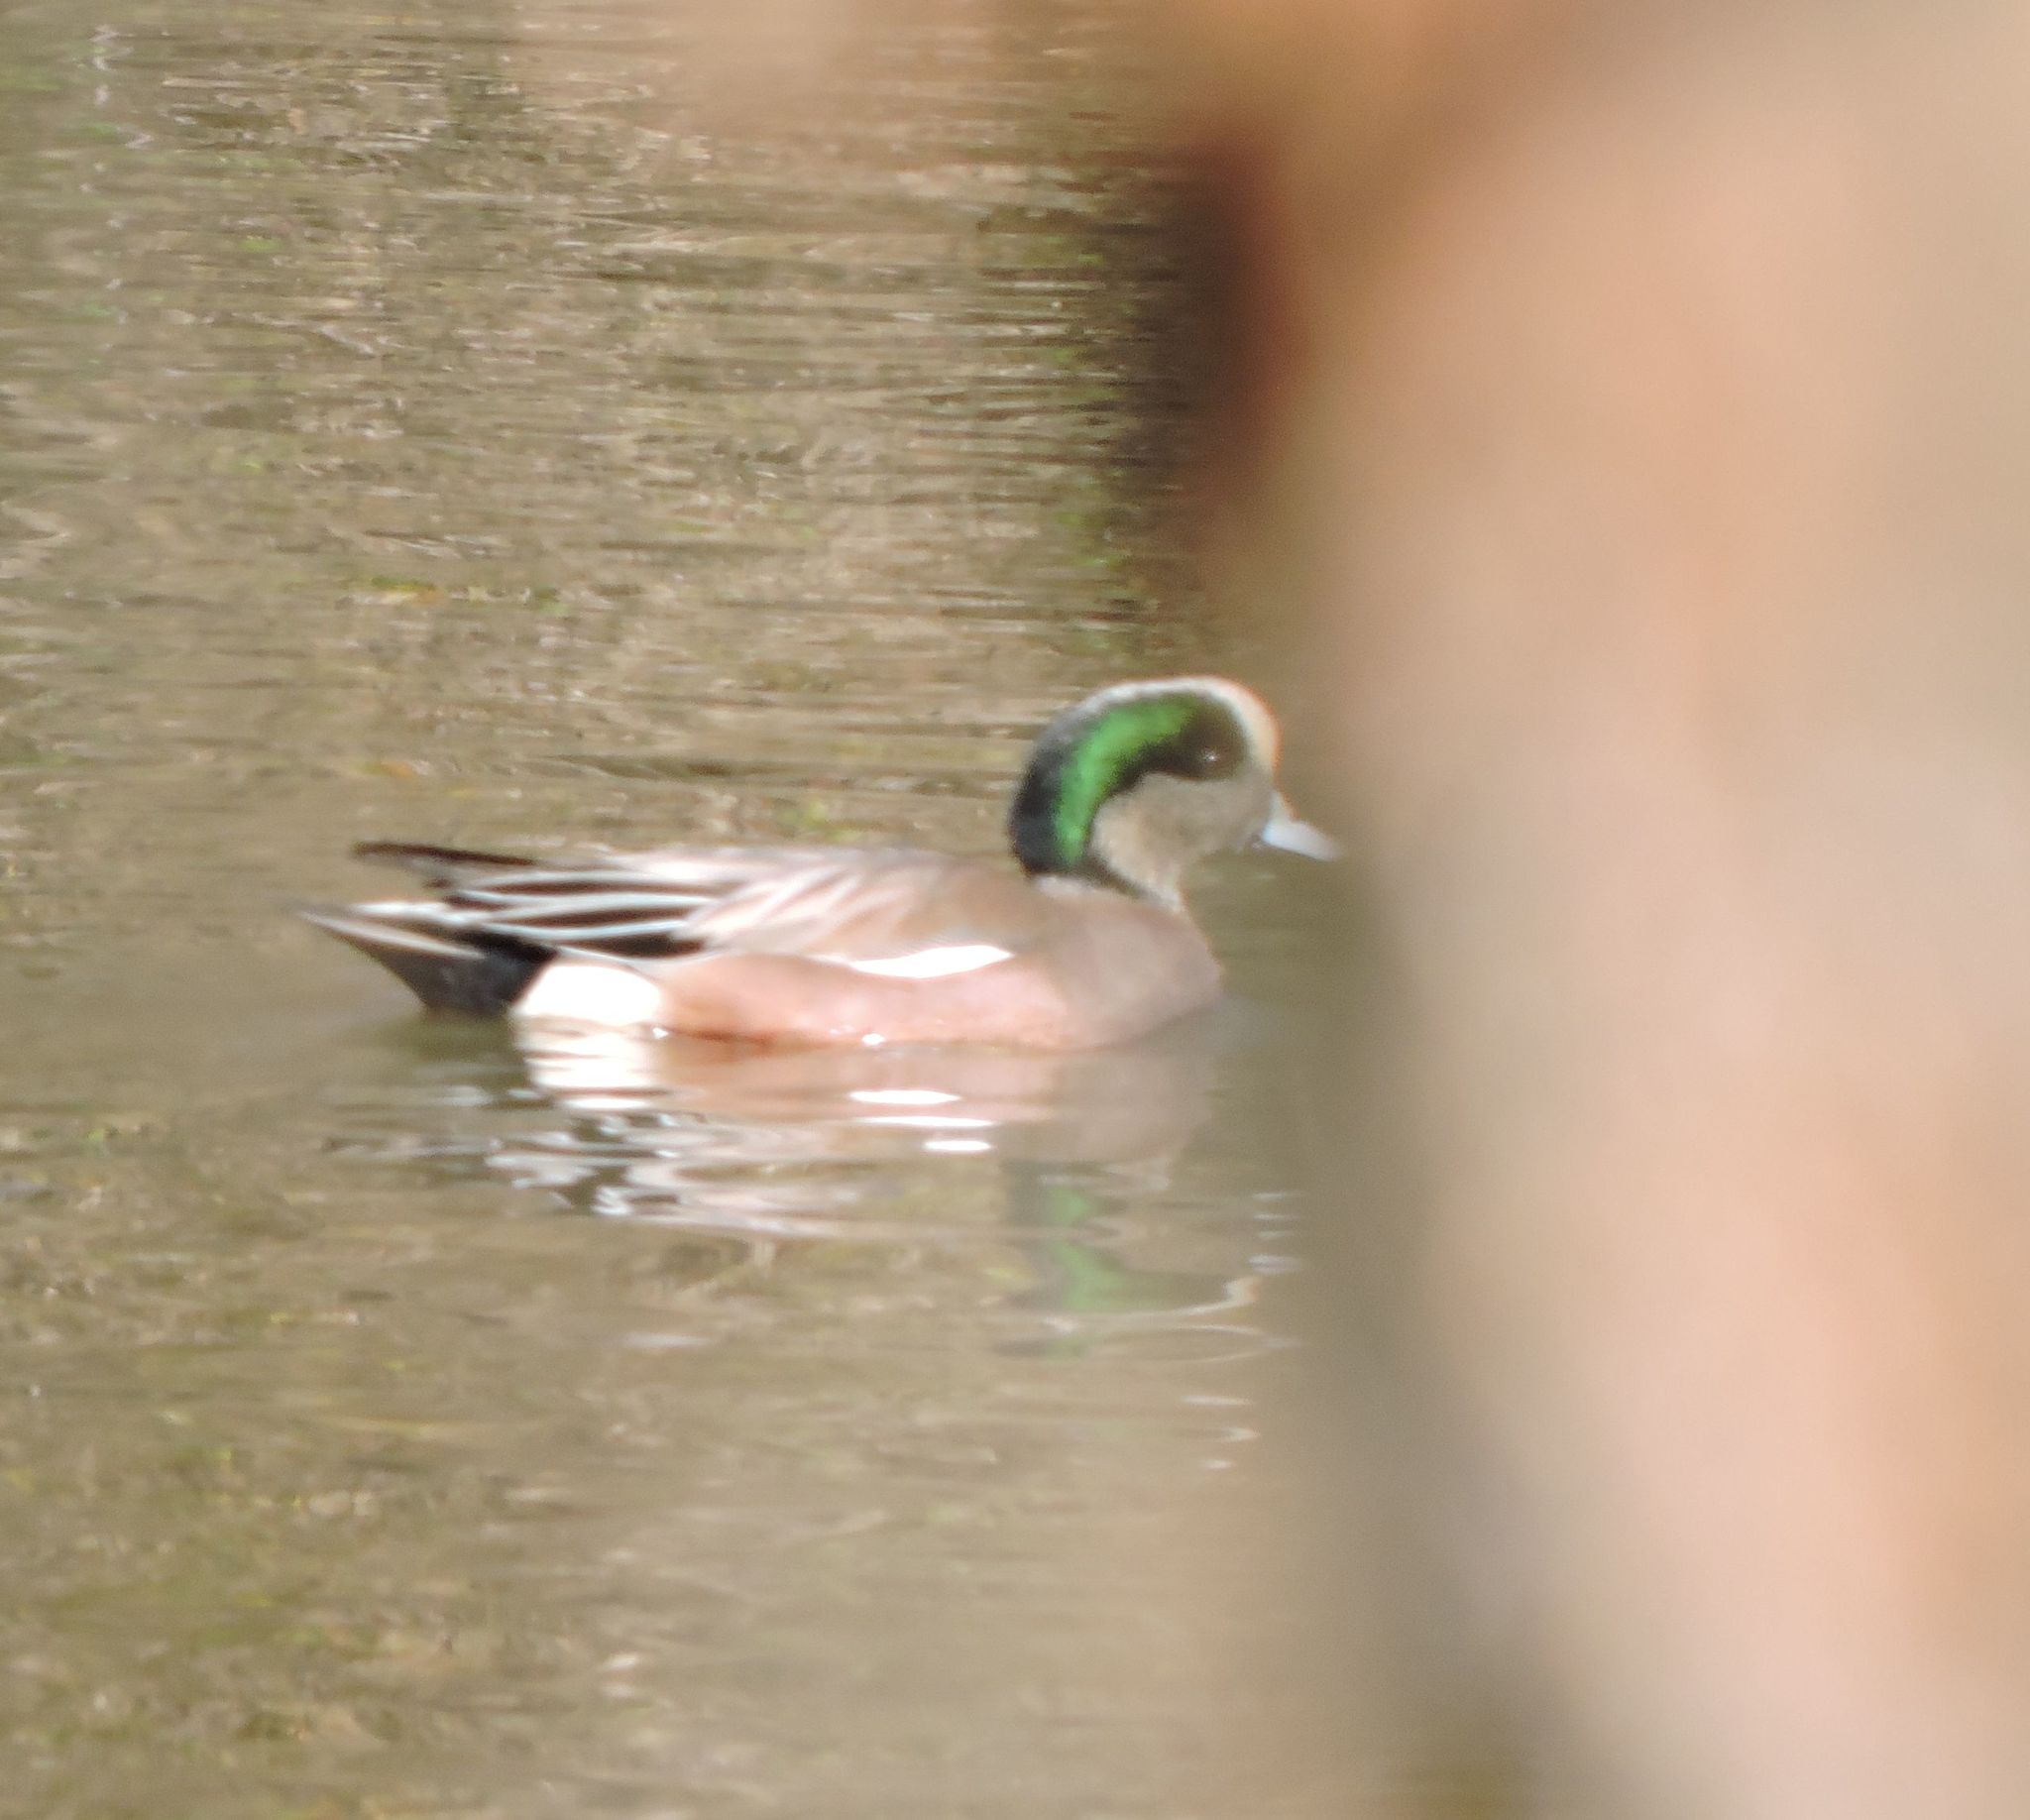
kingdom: Animalia
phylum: Chordata
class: Aves
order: Anseriformes
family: Anatidae
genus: Mareca
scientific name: Mareca americana
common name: American wigeon
